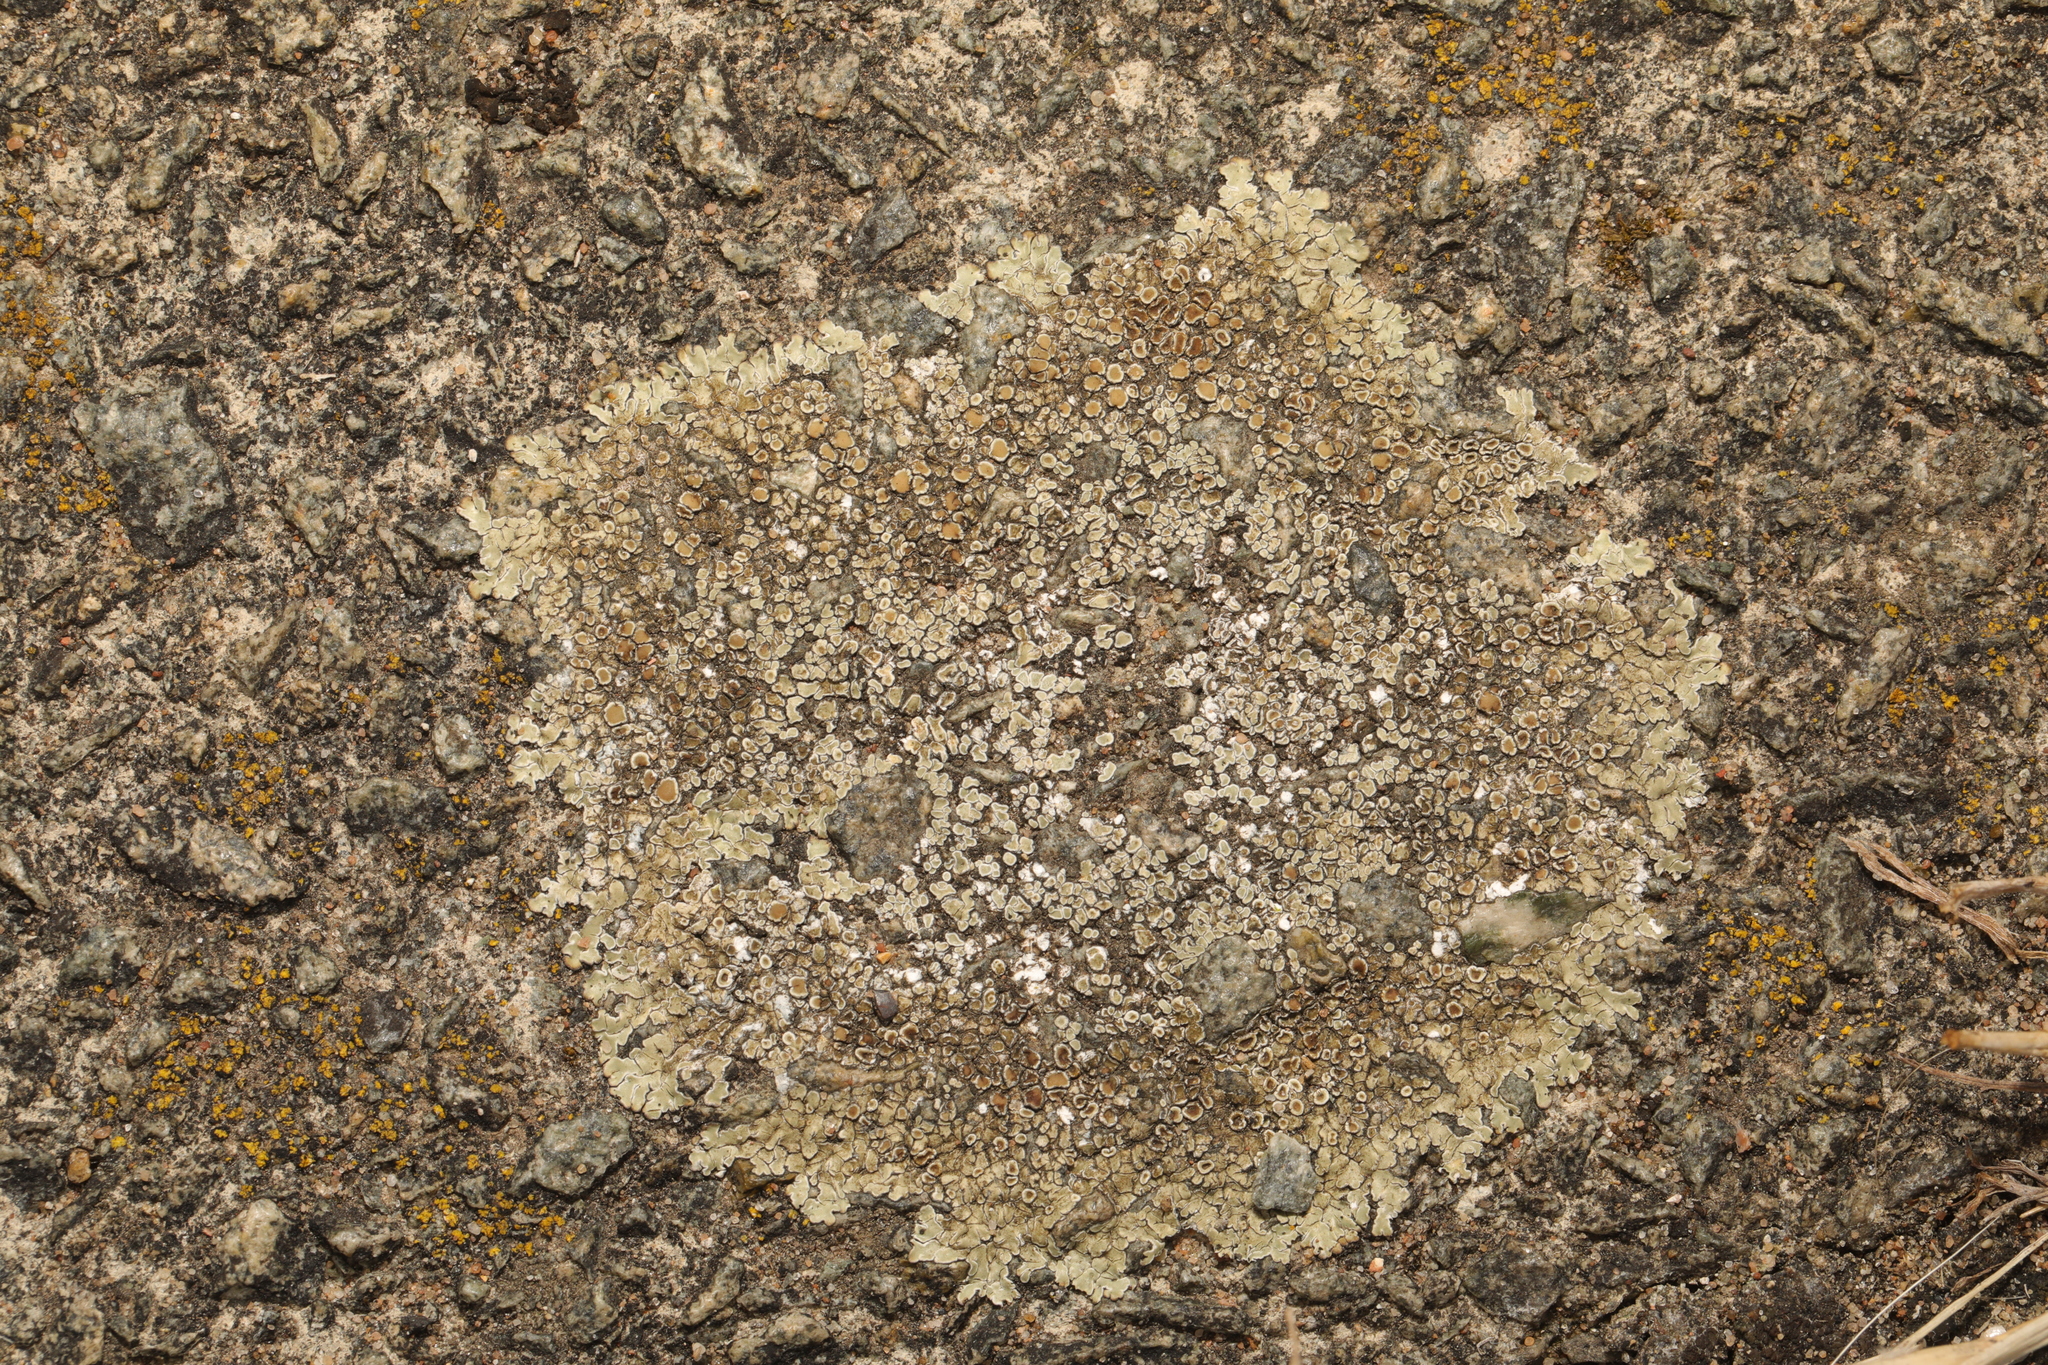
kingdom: Fungi
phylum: Ascomycota
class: Lecanoromycetes
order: Lecanorales
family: Lecanoraceae
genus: Protoparmeliopsis
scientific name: Protoparmeliopsis muralis
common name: Stonewall rim lichen
